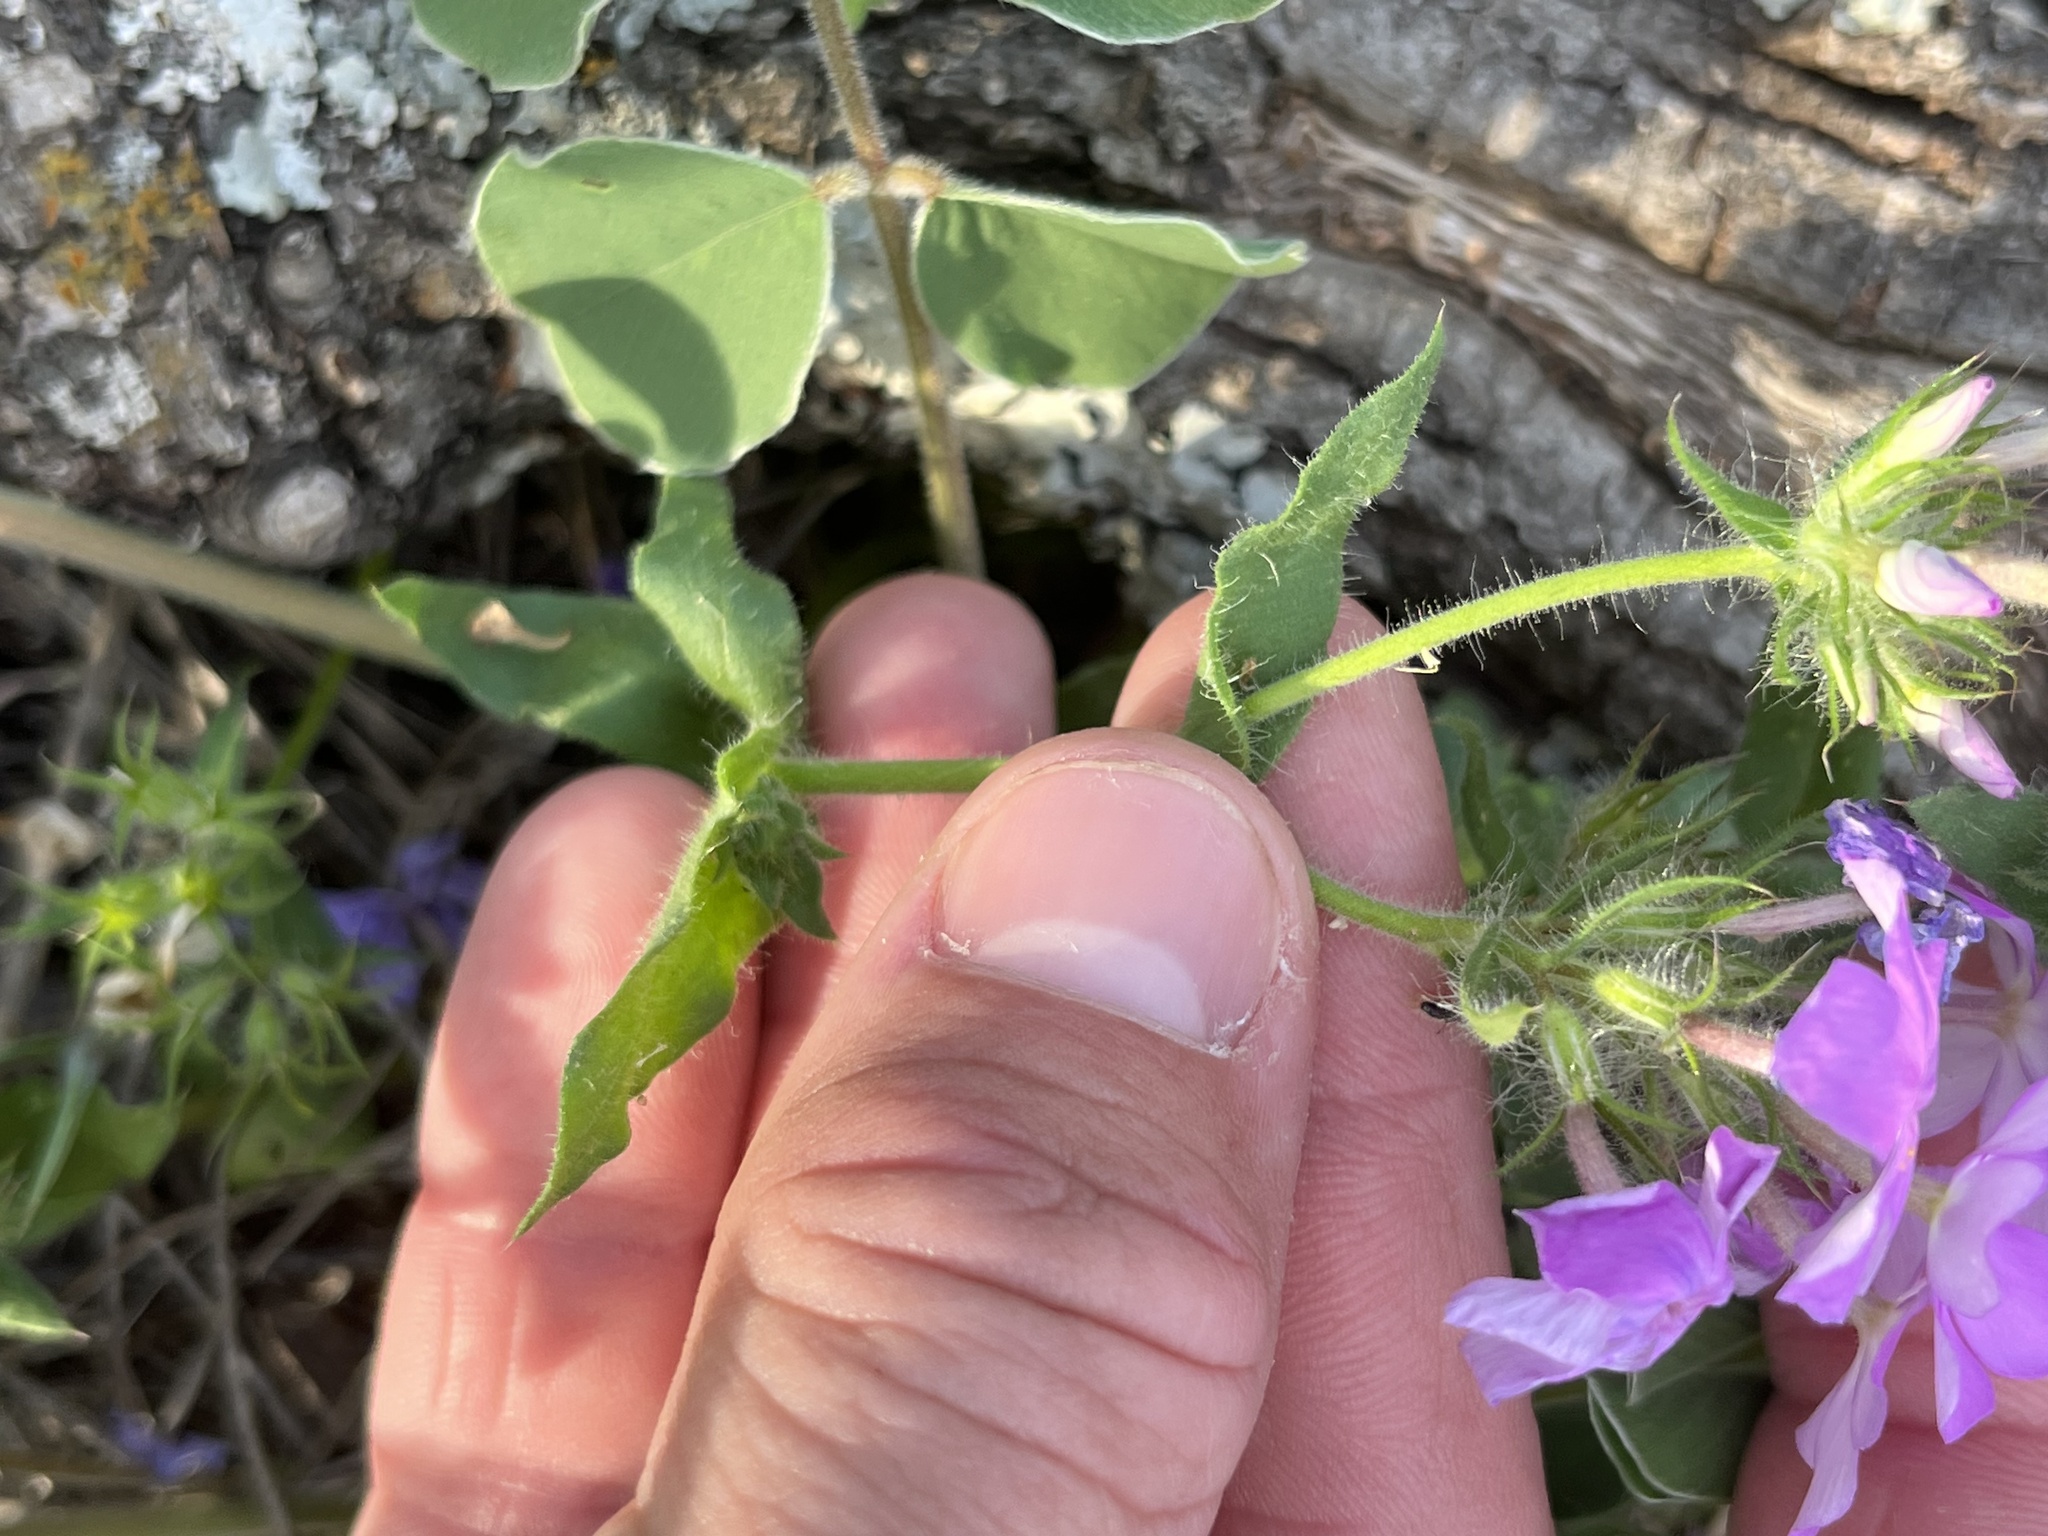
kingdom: Plantae
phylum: Tracheophyta
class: Magnoliopsida
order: Ericales
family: Polemoniaceae
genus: Phlox
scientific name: Phlox drummondii
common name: Drummond's phlox
